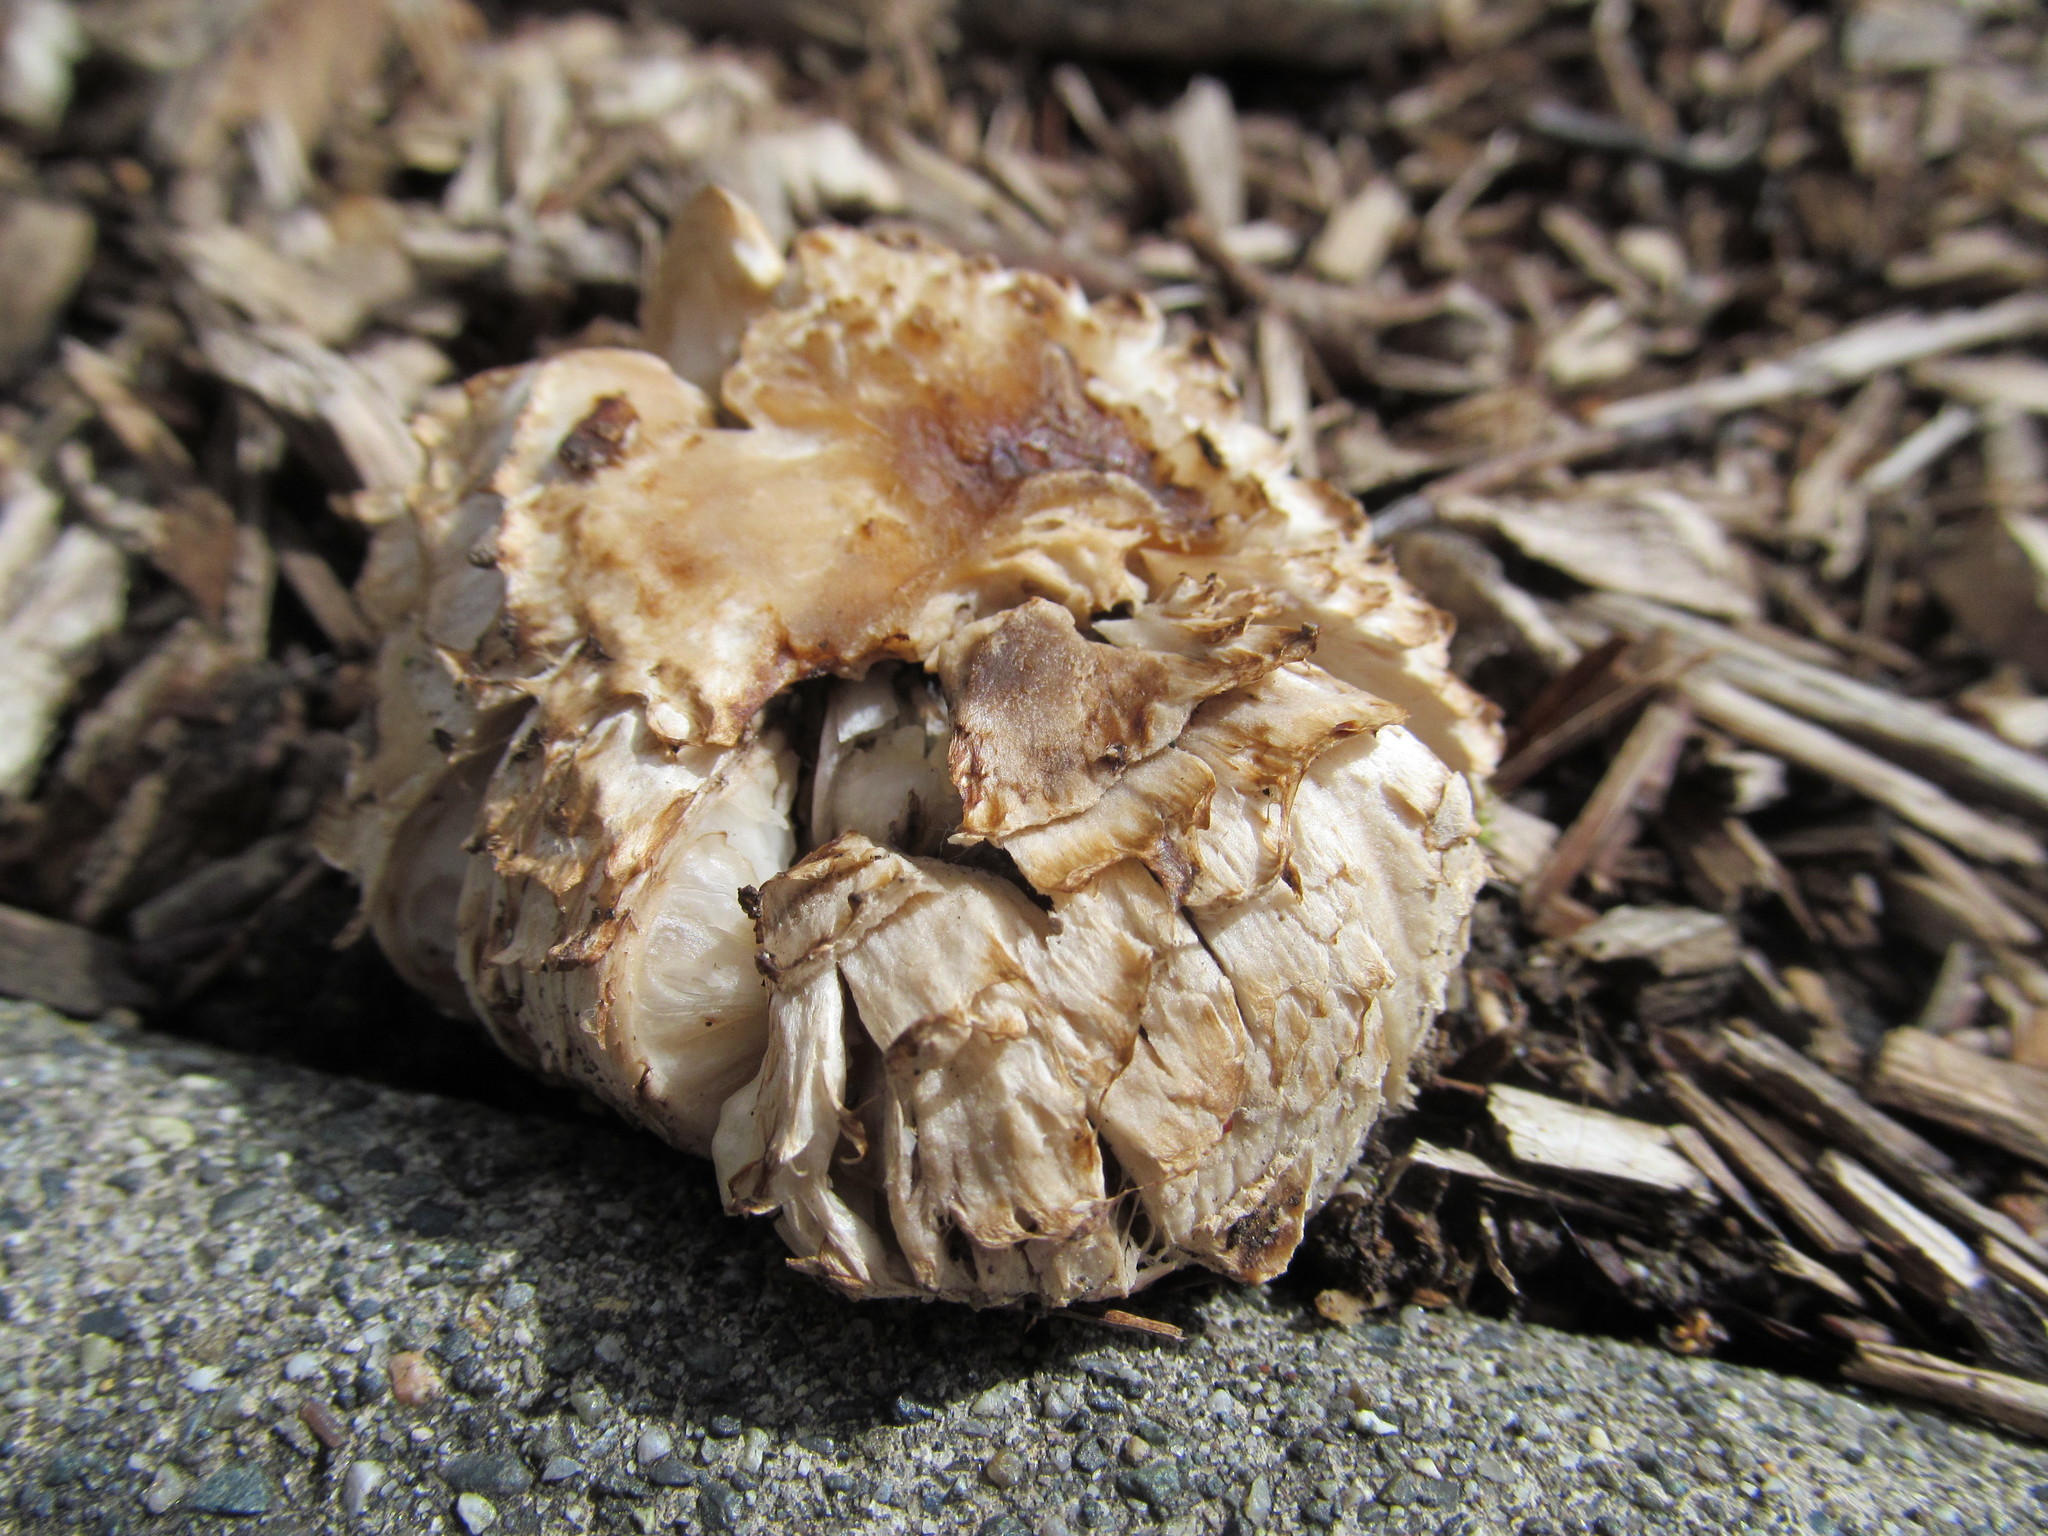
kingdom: Fungi
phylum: Basidiomycota
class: Agaricomycetes
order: Agaricales
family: Agaricaceae
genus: Coprinus
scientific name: Coprinus comatus
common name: Lawyer's wig
